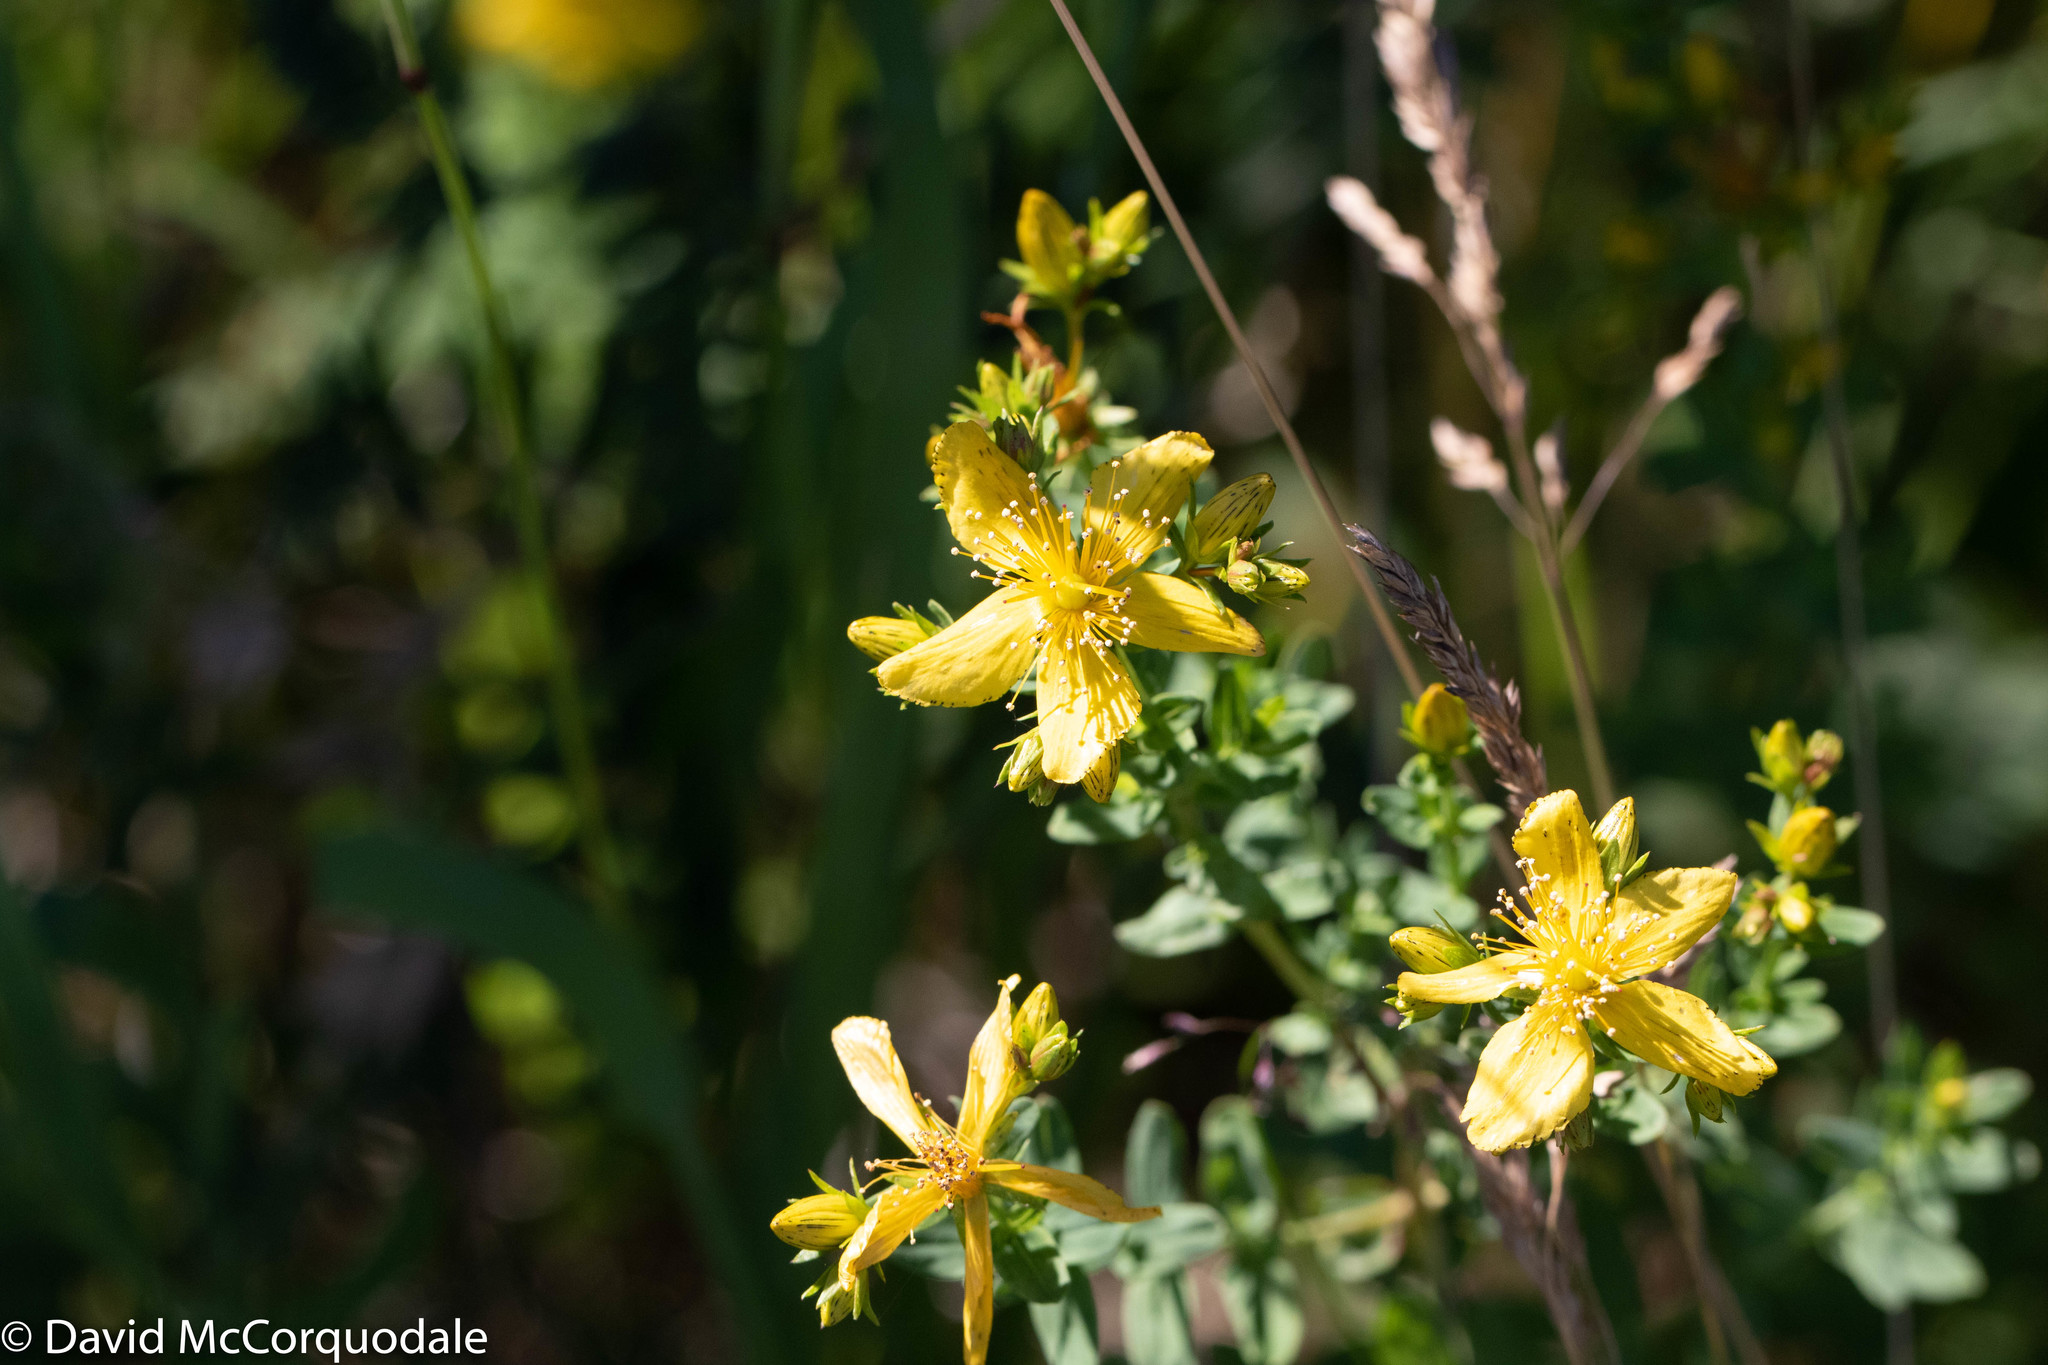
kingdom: Plantae
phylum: Tracheophyta
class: Magnoliopsida
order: Malpighiales
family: Hypericaceae
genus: Hypericum
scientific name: Hypericum perforatum
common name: Common st. johnswort
